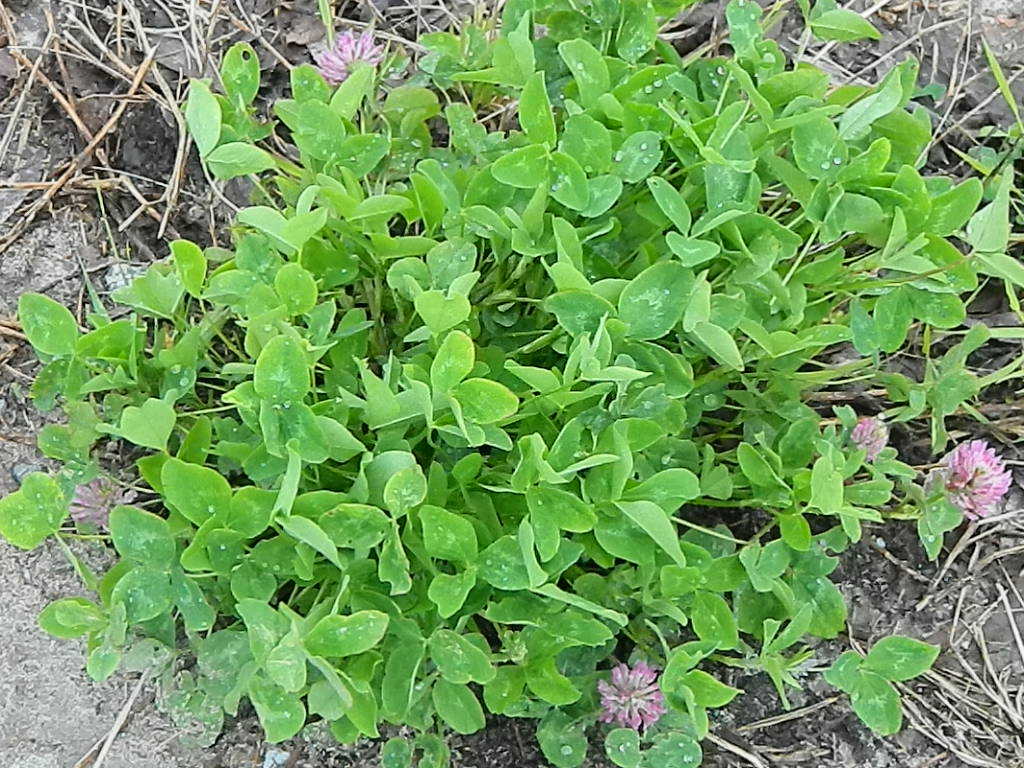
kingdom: Plantae
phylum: Tracheophyta
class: Magnoliopsida
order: Fabales
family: Fabaceae
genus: Trifolium
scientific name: Trifolium pratense
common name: Red clover
